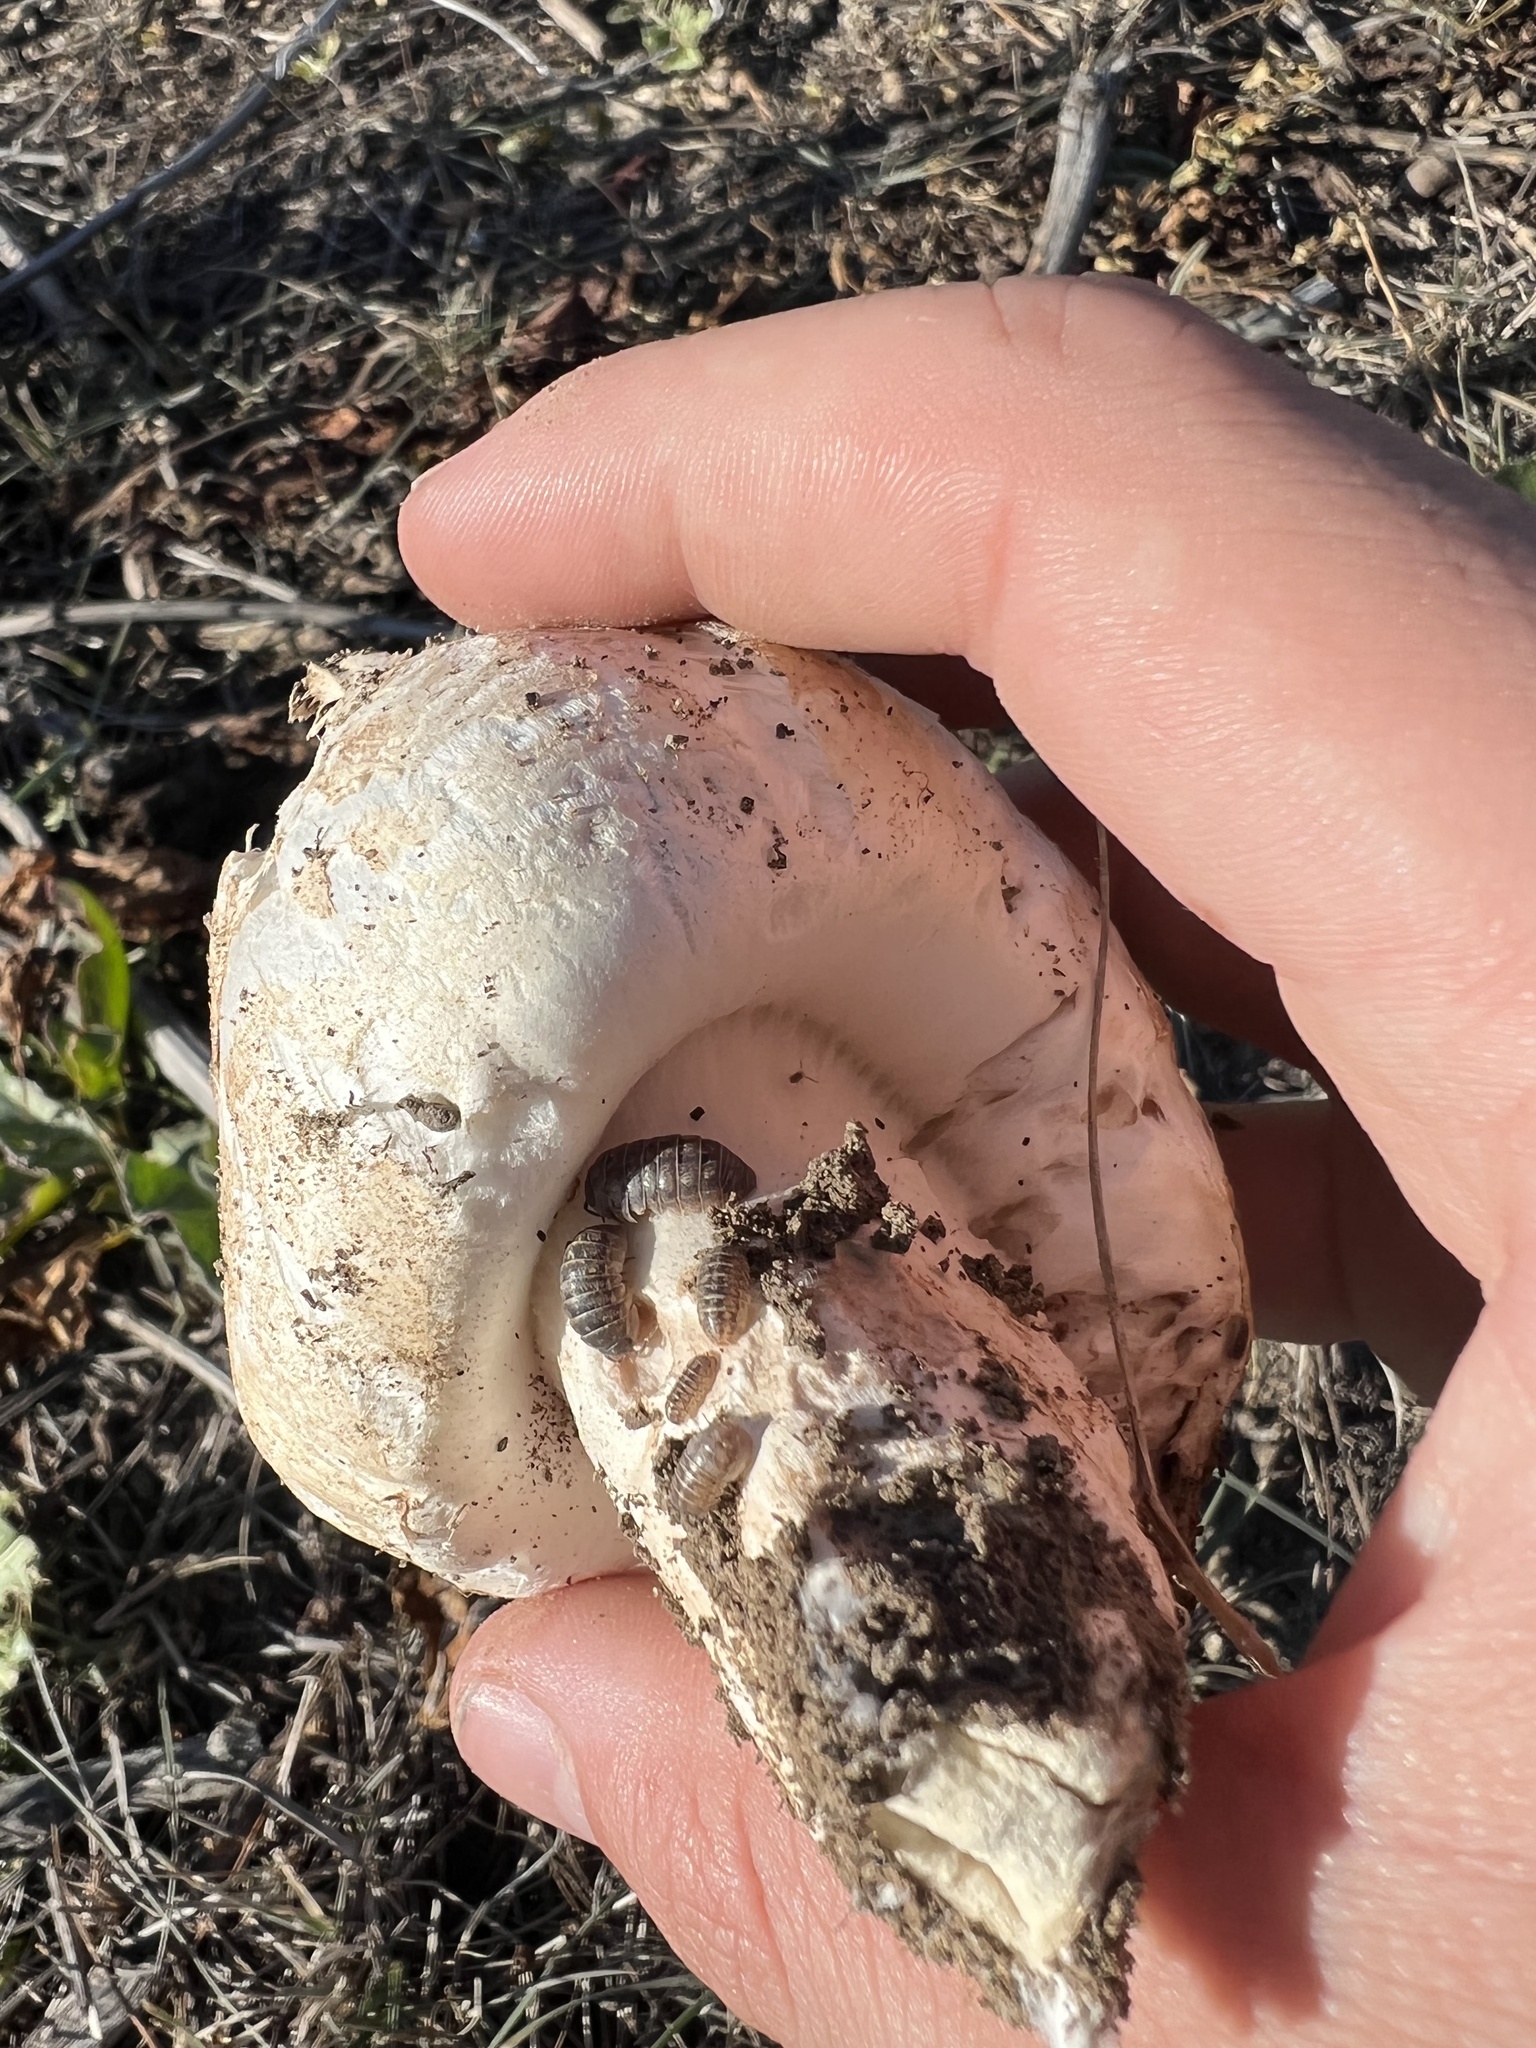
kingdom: Animalia
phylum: Arthropoda
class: Malacostraca
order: Isopoda
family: Armadillidiidae
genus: Armadillidium
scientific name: Armadillidium vulgare
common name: Common pill woodlouse
